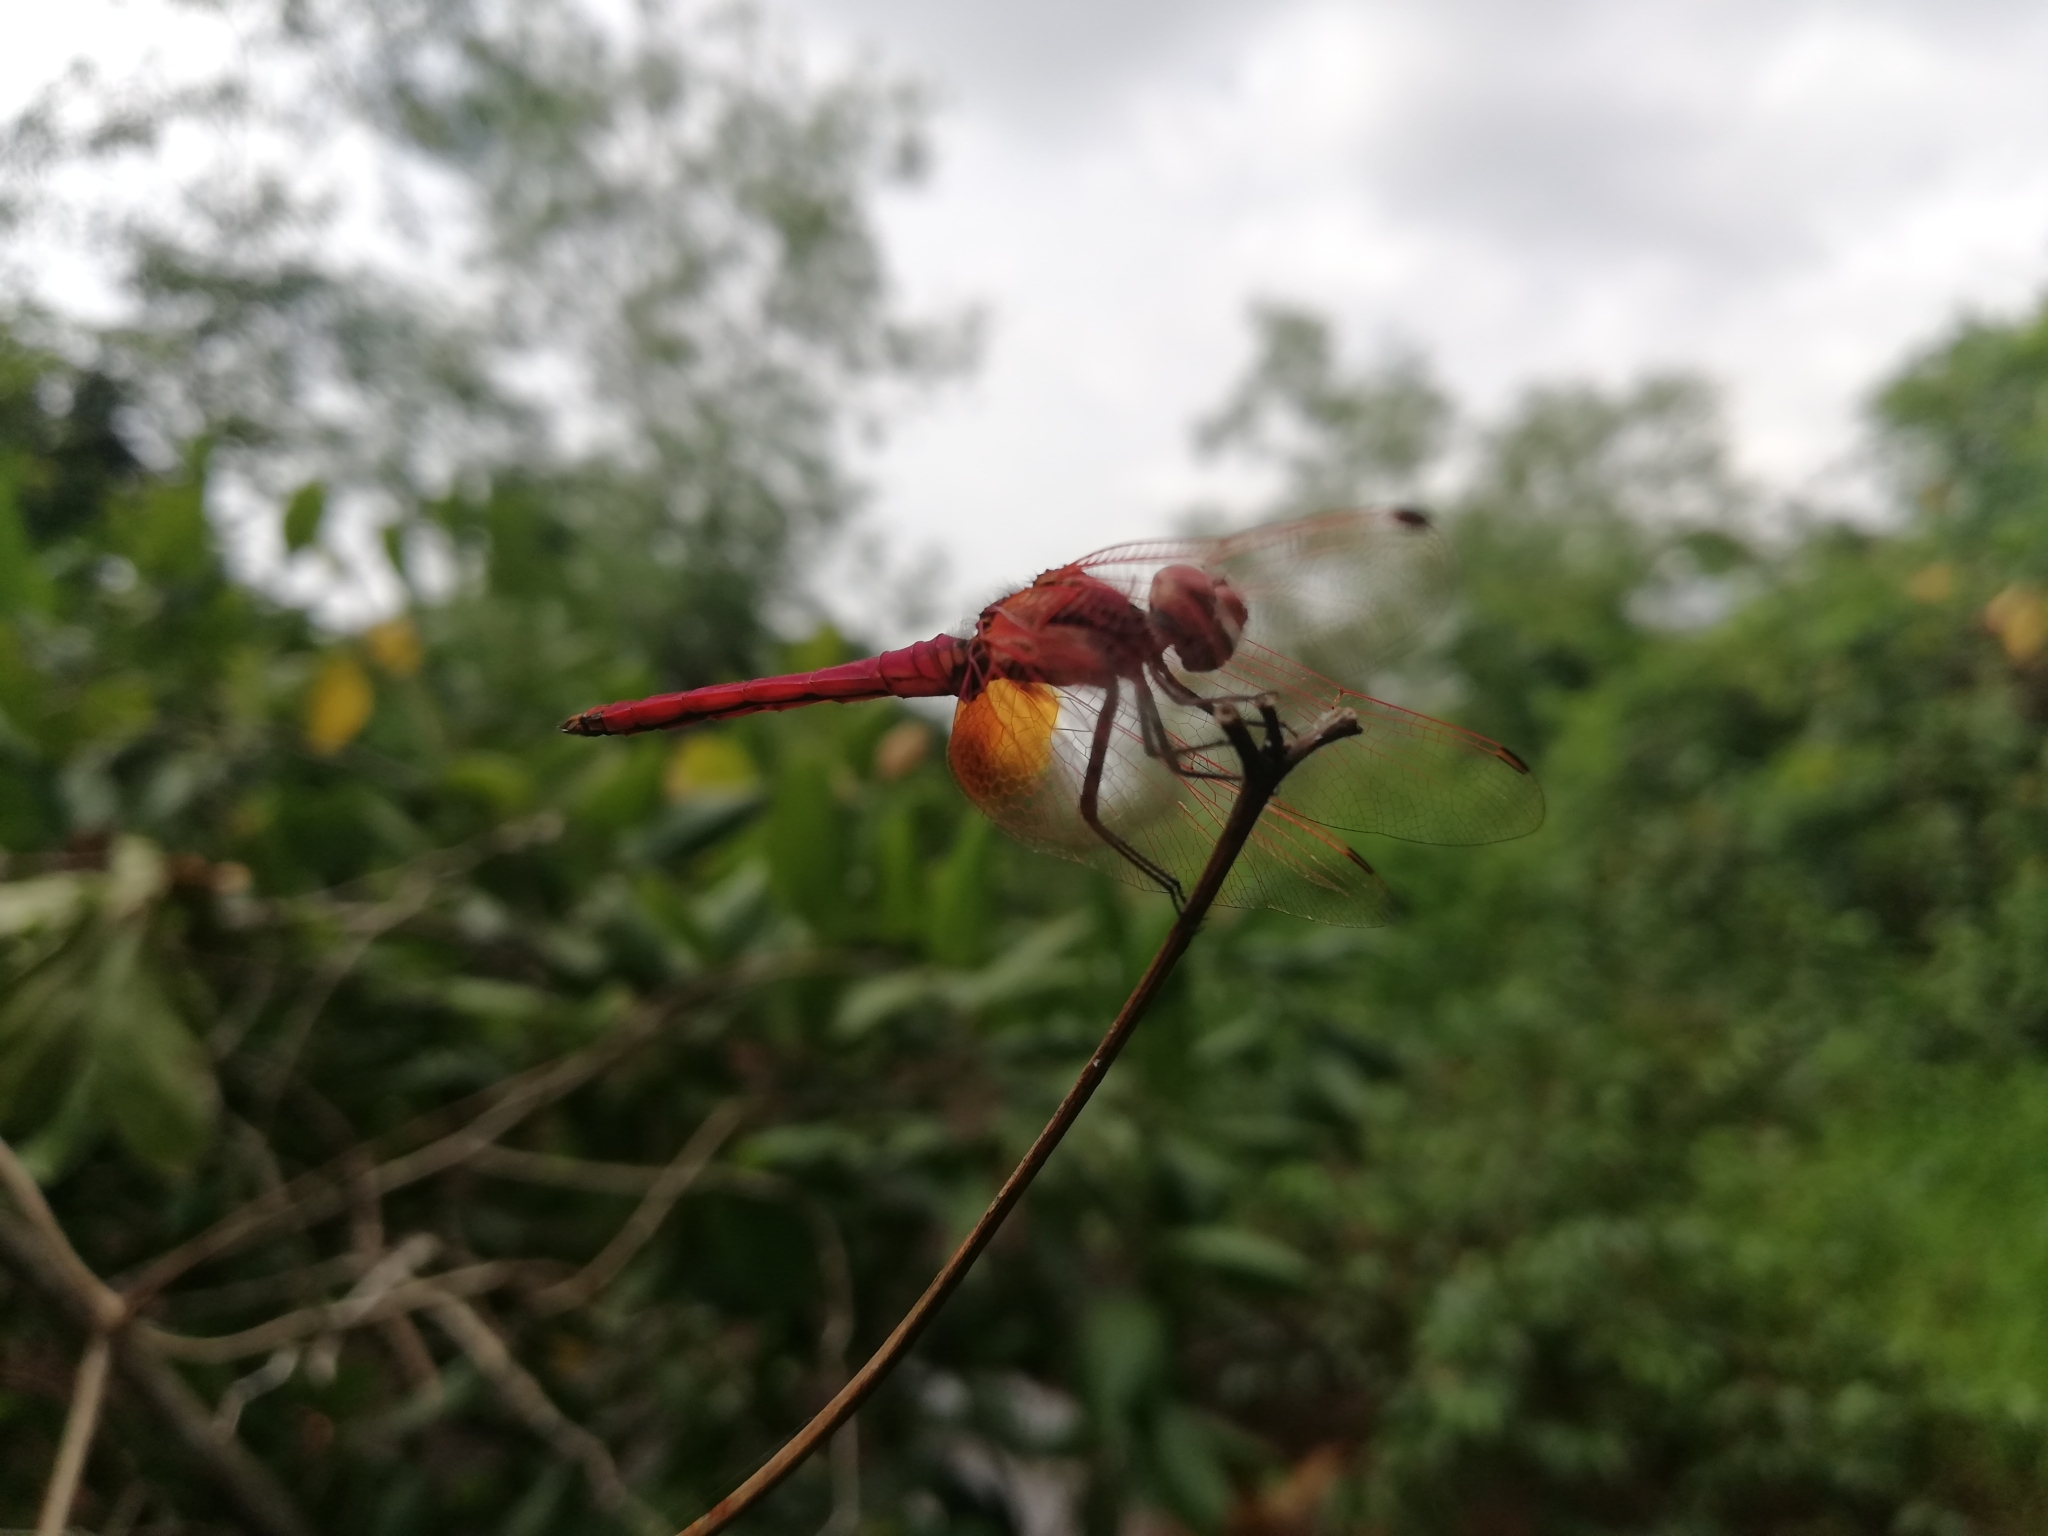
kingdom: Animalia
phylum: Arthropoda
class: Insecta
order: Odonata
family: Libellulidae
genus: Trithemis
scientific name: Trithemis aurora
